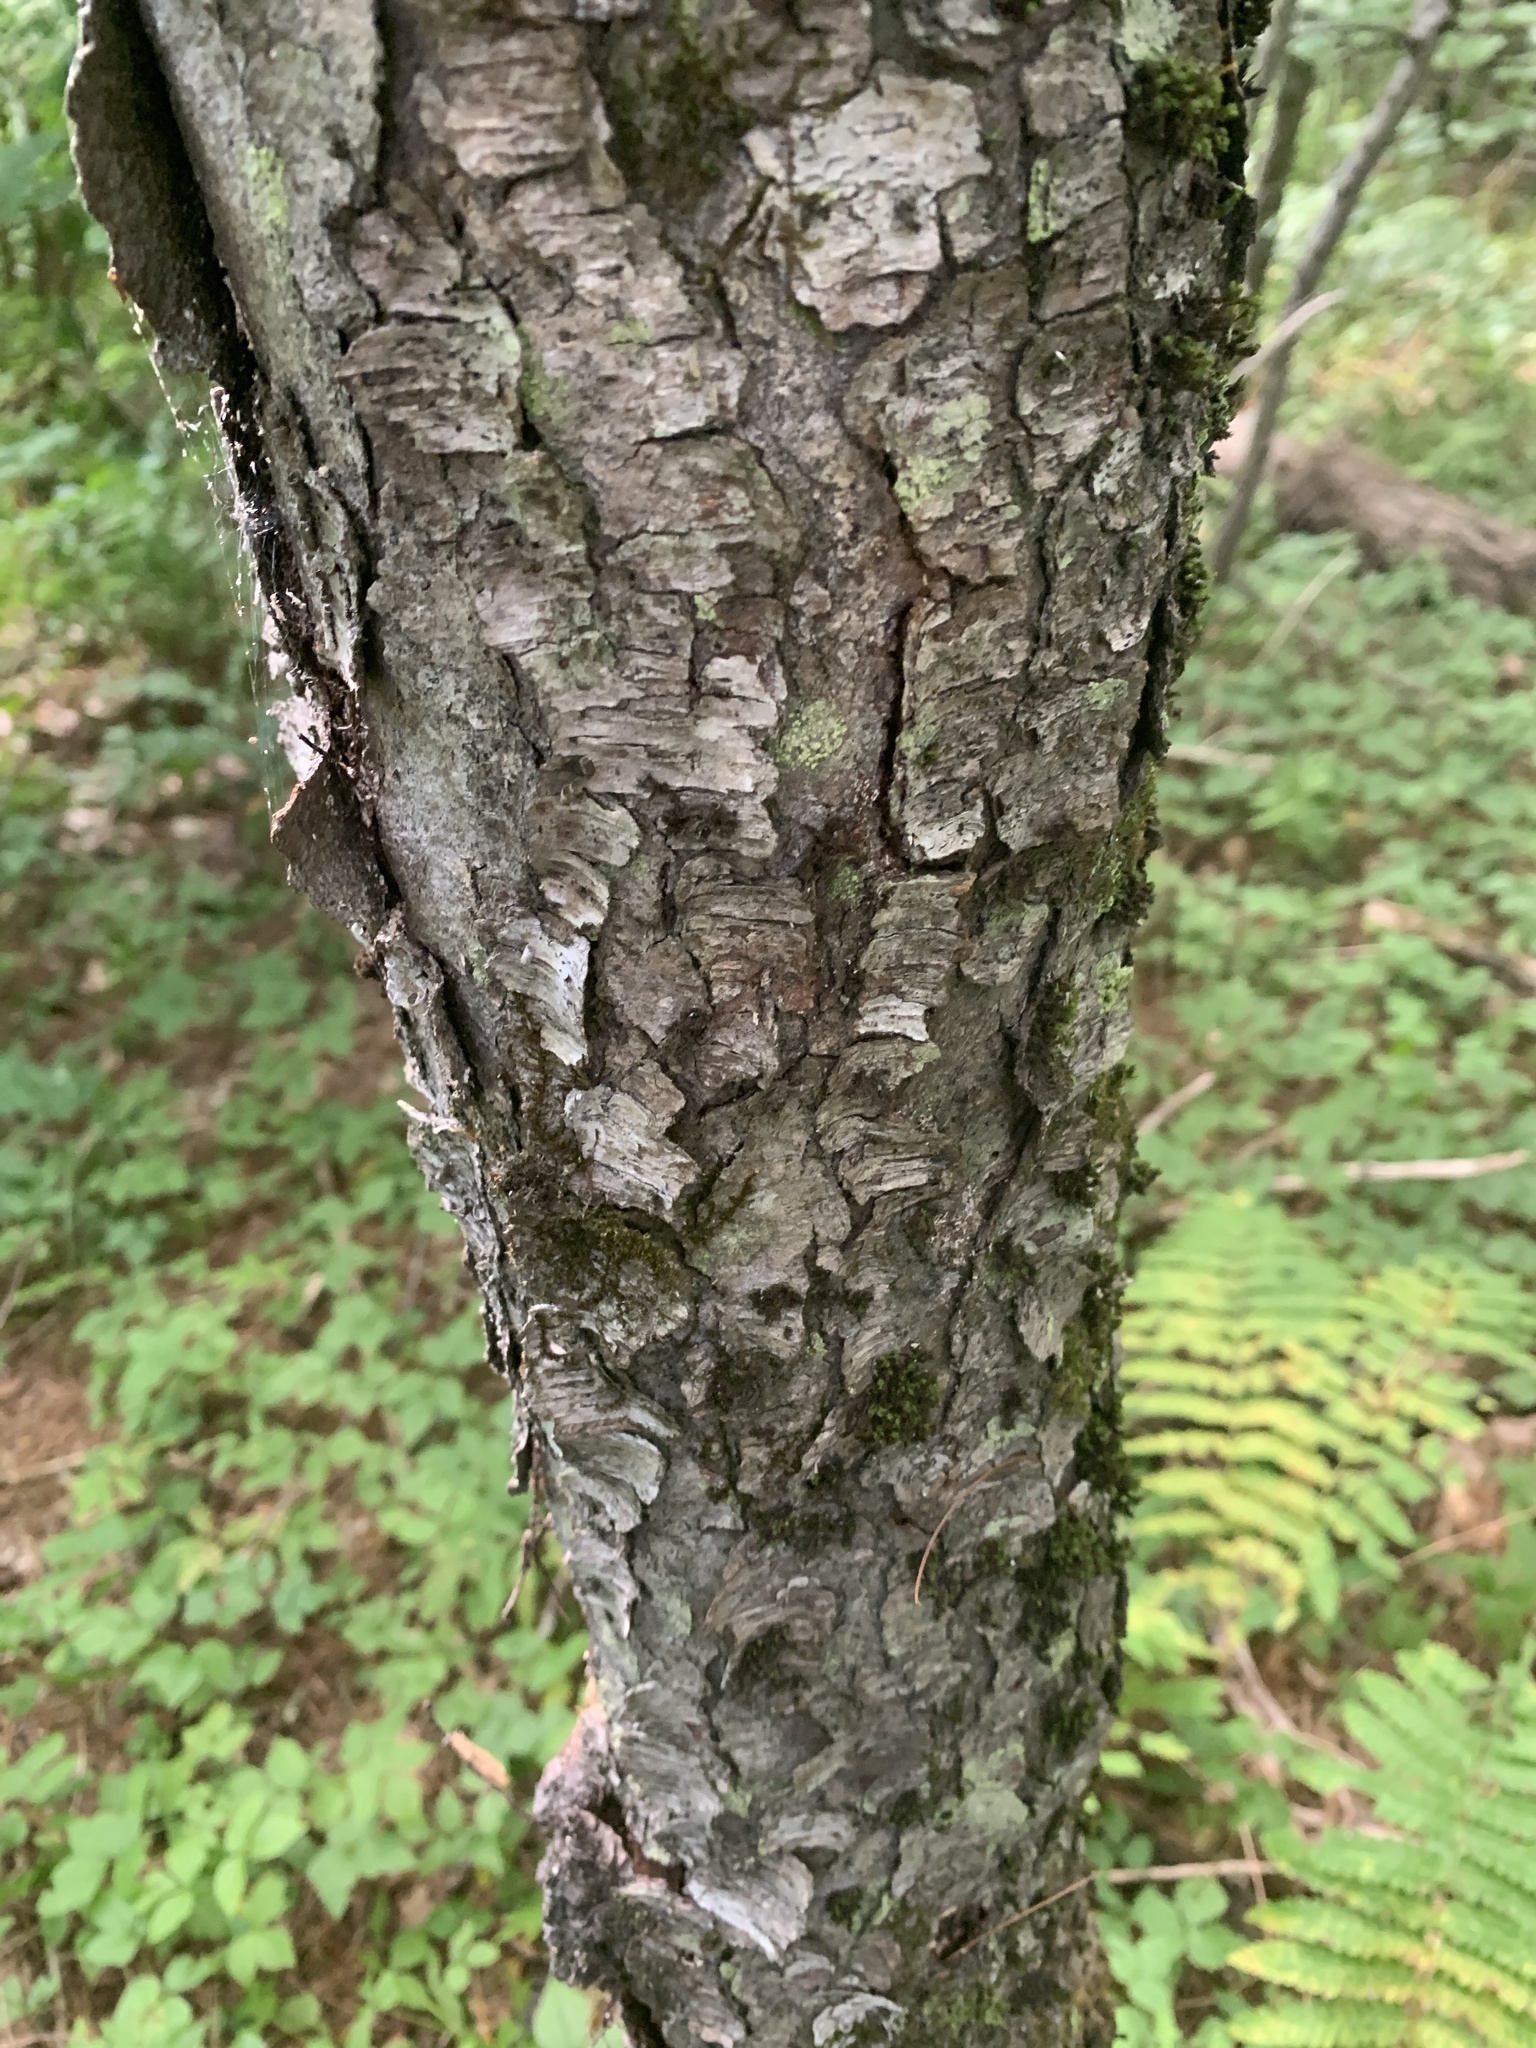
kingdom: Plantae
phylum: Tracheophyta
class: Magnoliopsida
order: Rosales
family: Rosaceae
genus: Prunus
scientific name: Prunus serotina
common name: Black cherry
